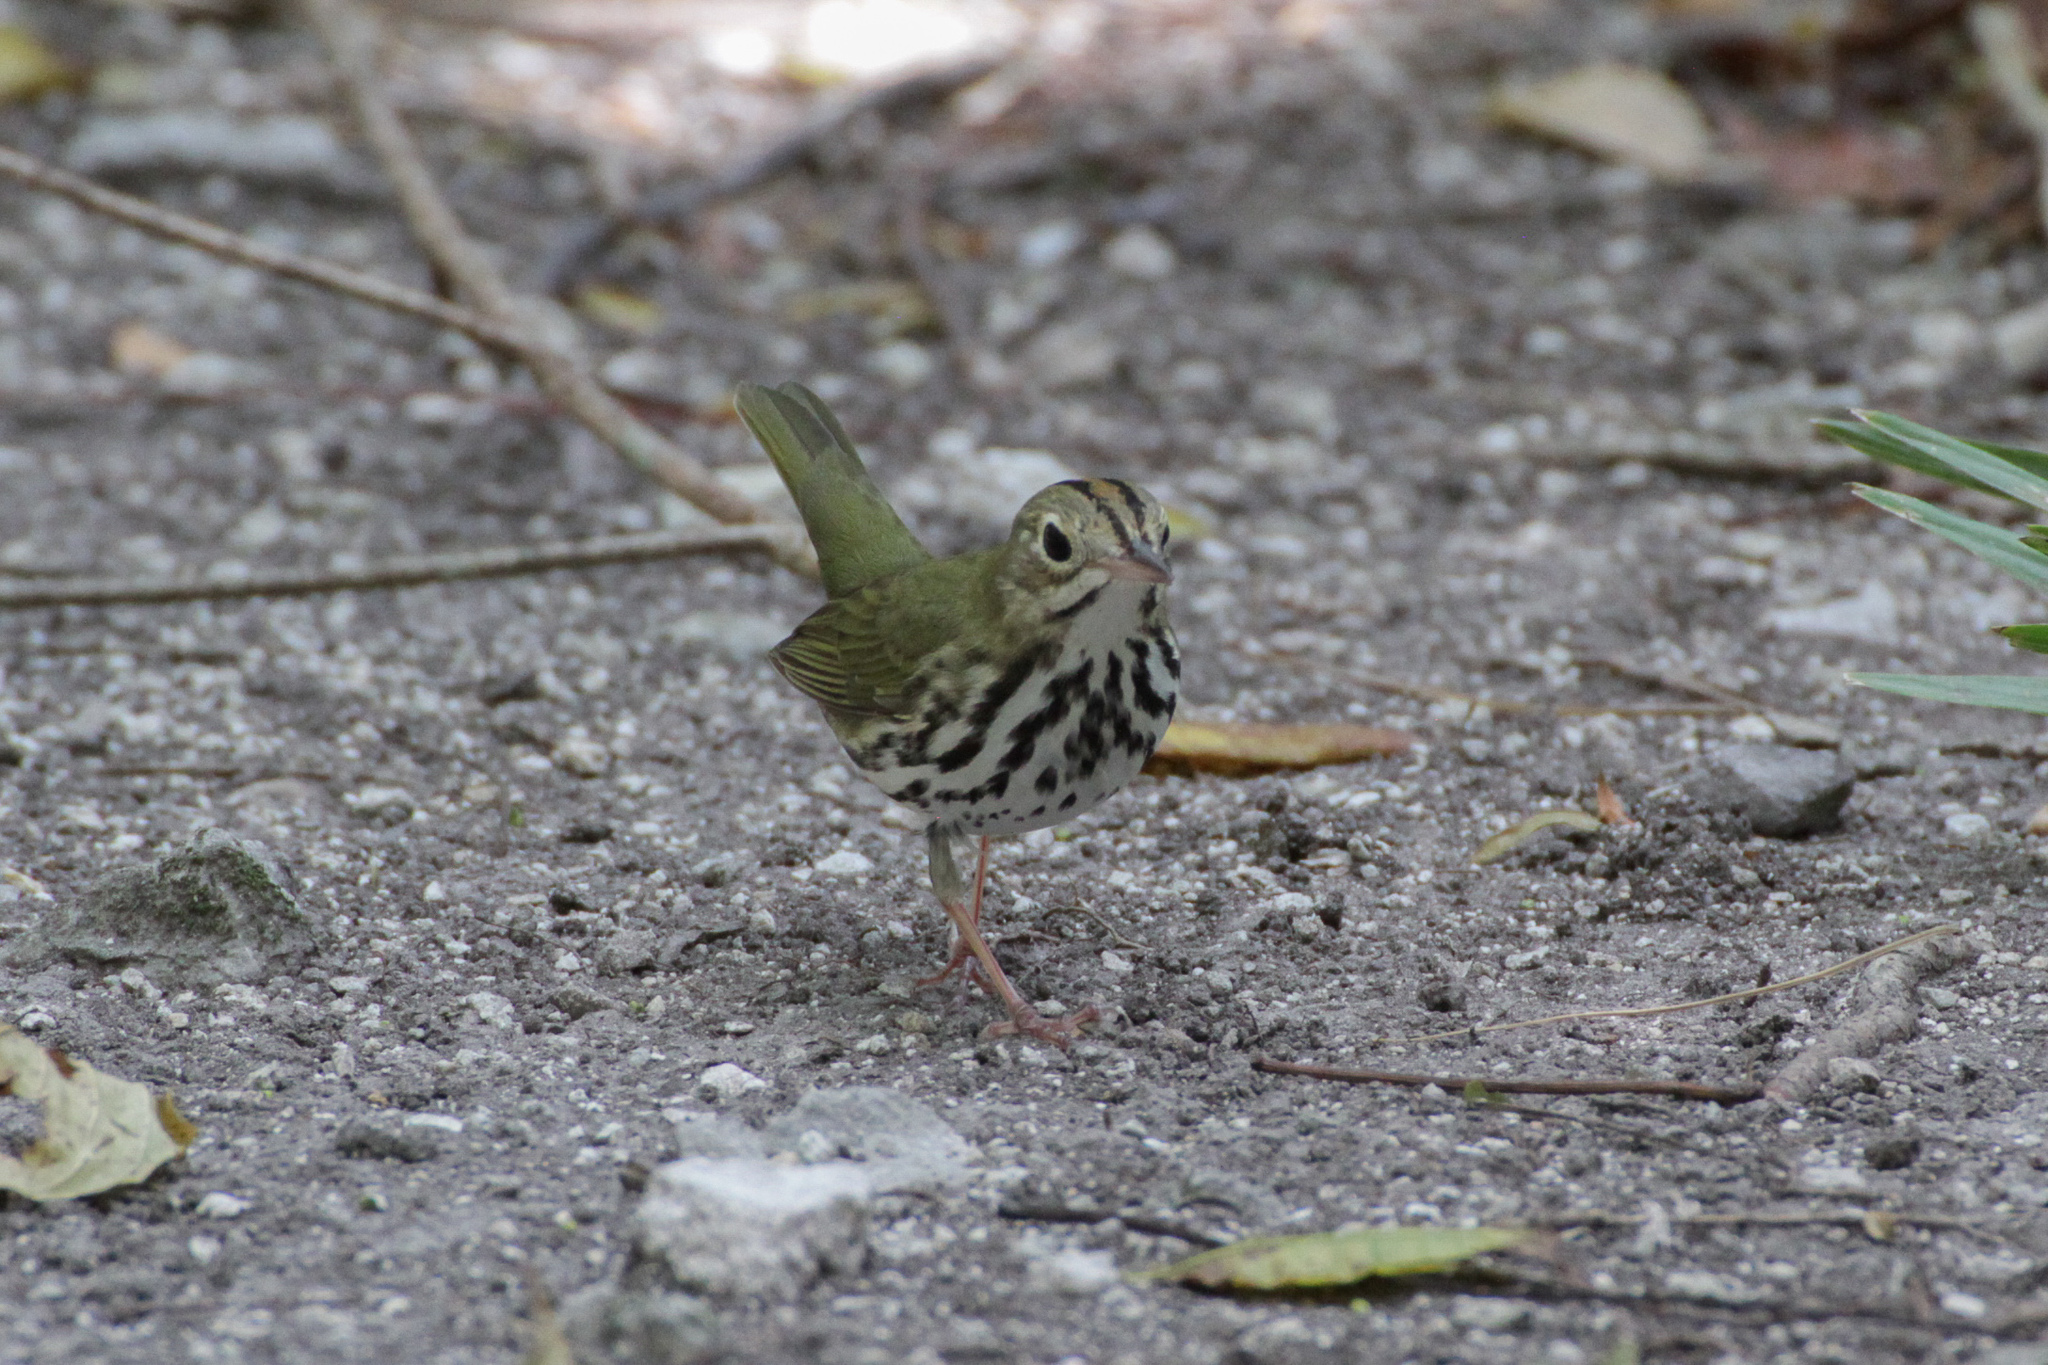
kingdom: Animalia
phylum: Chordata
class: Aves
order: Passeriformes
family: Parulidae
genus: Seiurus
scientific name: Seiurus aurocapilla
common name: Ovenbird
